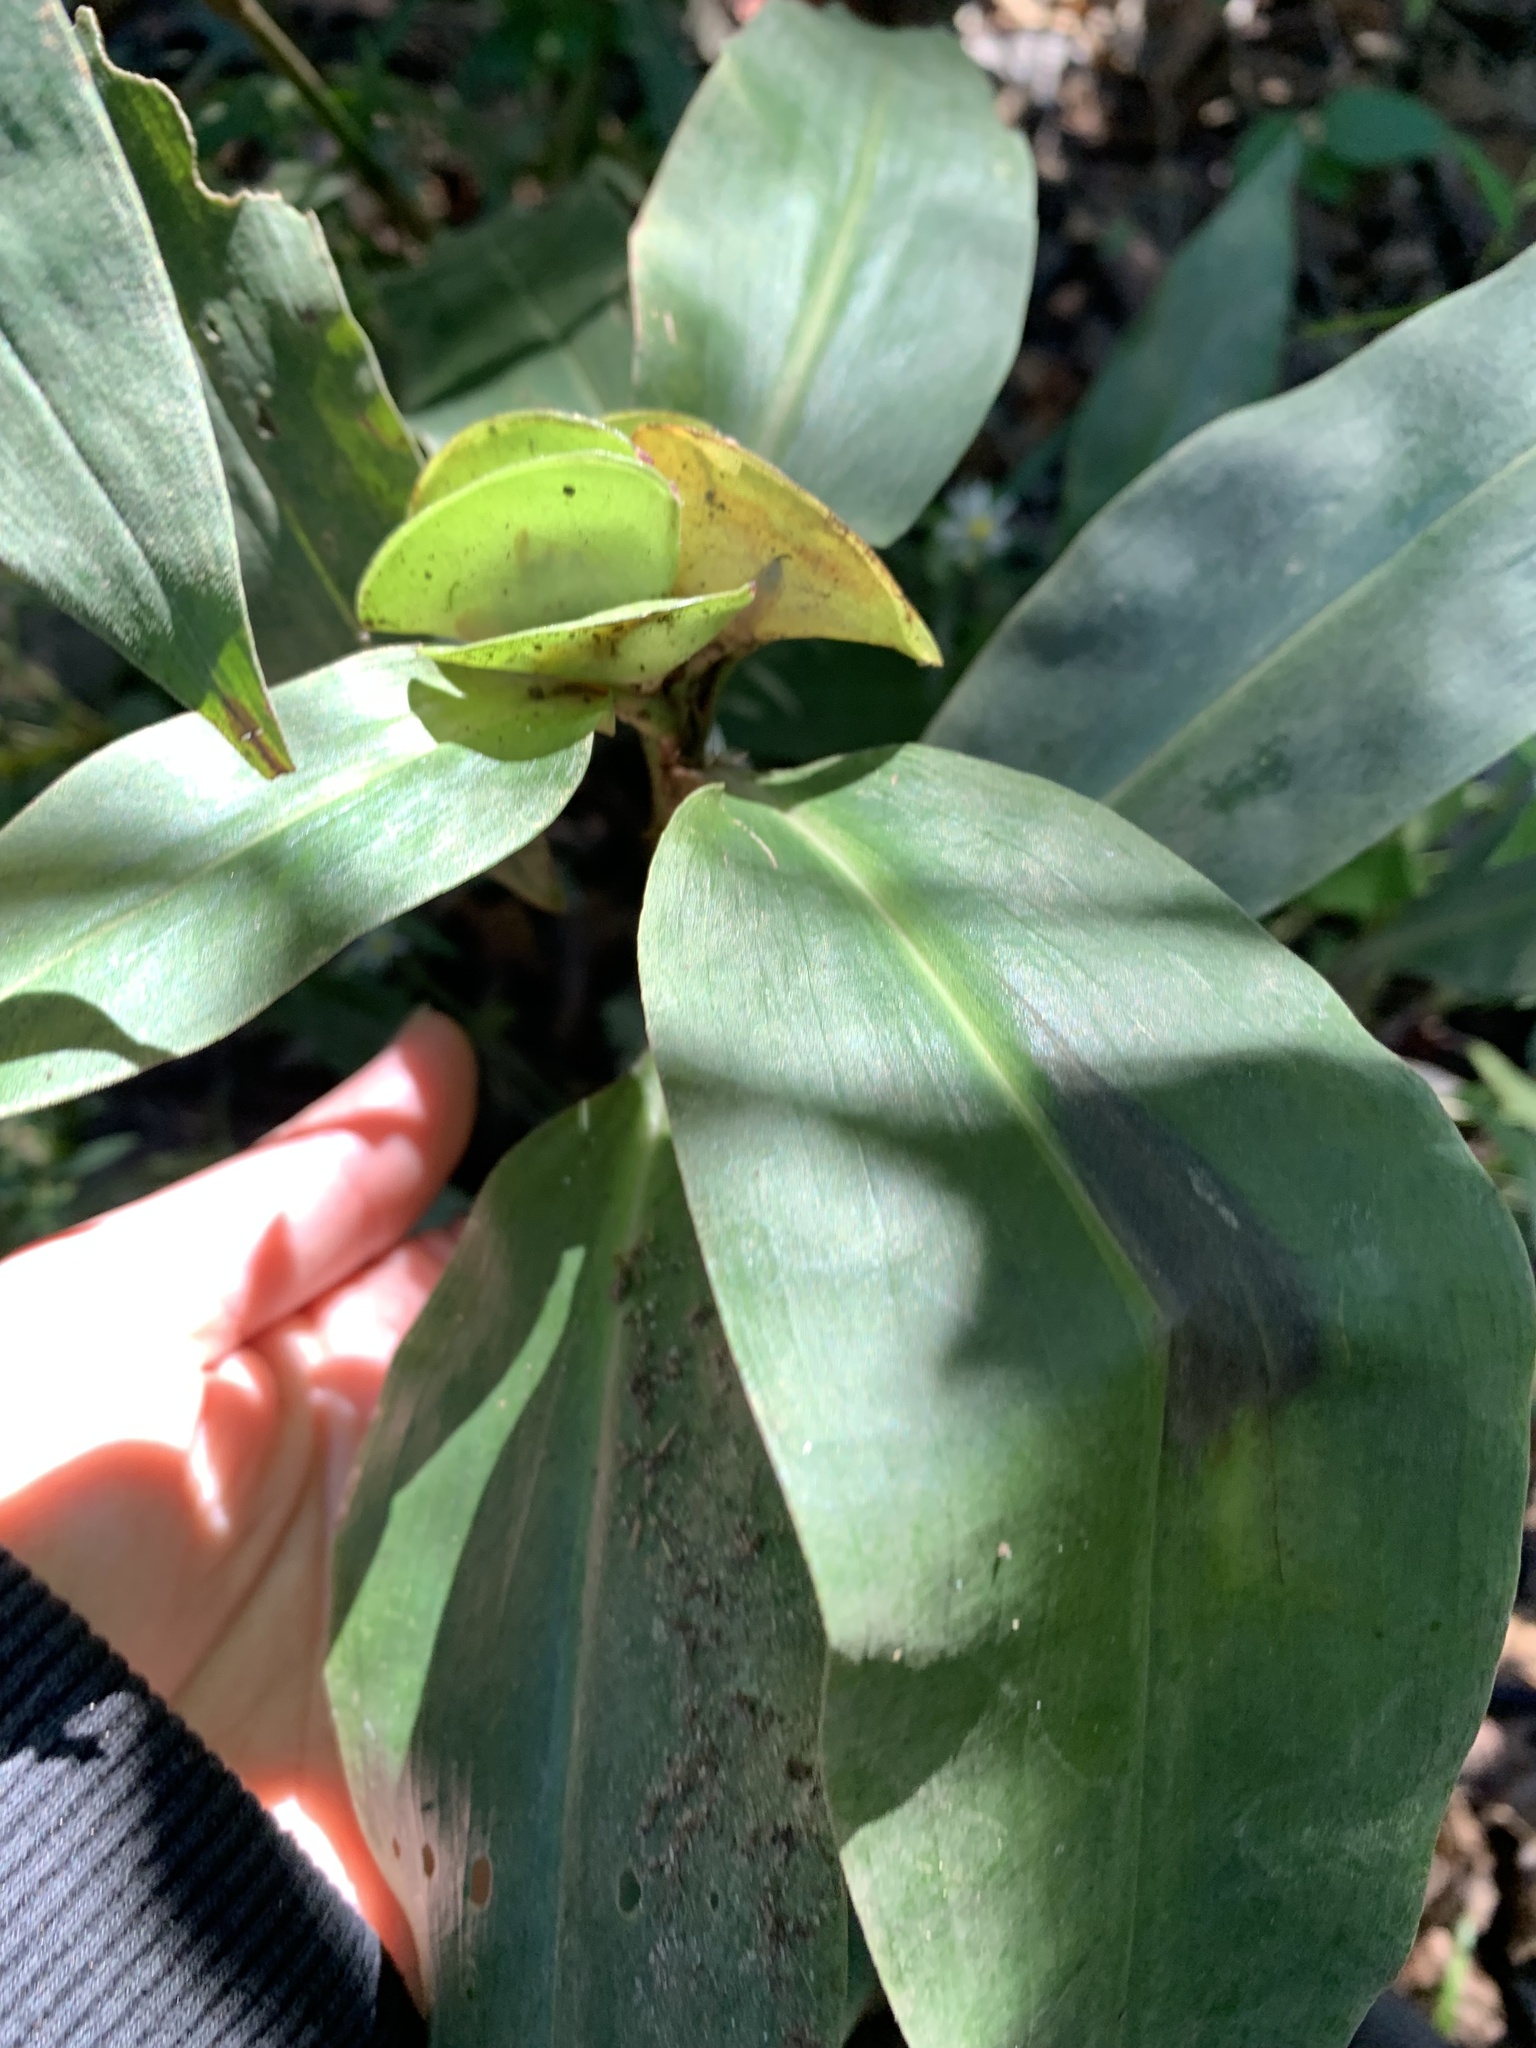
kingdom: Plantae
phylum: Tracheophyta
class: Liliopsida
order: Commelinales
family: Commelinaceae
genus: Commelina
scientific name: Commelina virginica
